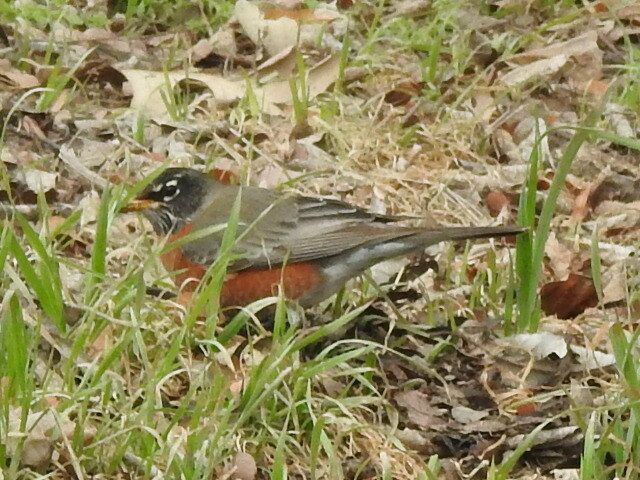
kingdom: Animalia
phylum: Chordata
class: Aves
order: Passeriformes
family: Turdidae
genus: Turdus
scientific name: Turdus migratorius
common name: American robin
